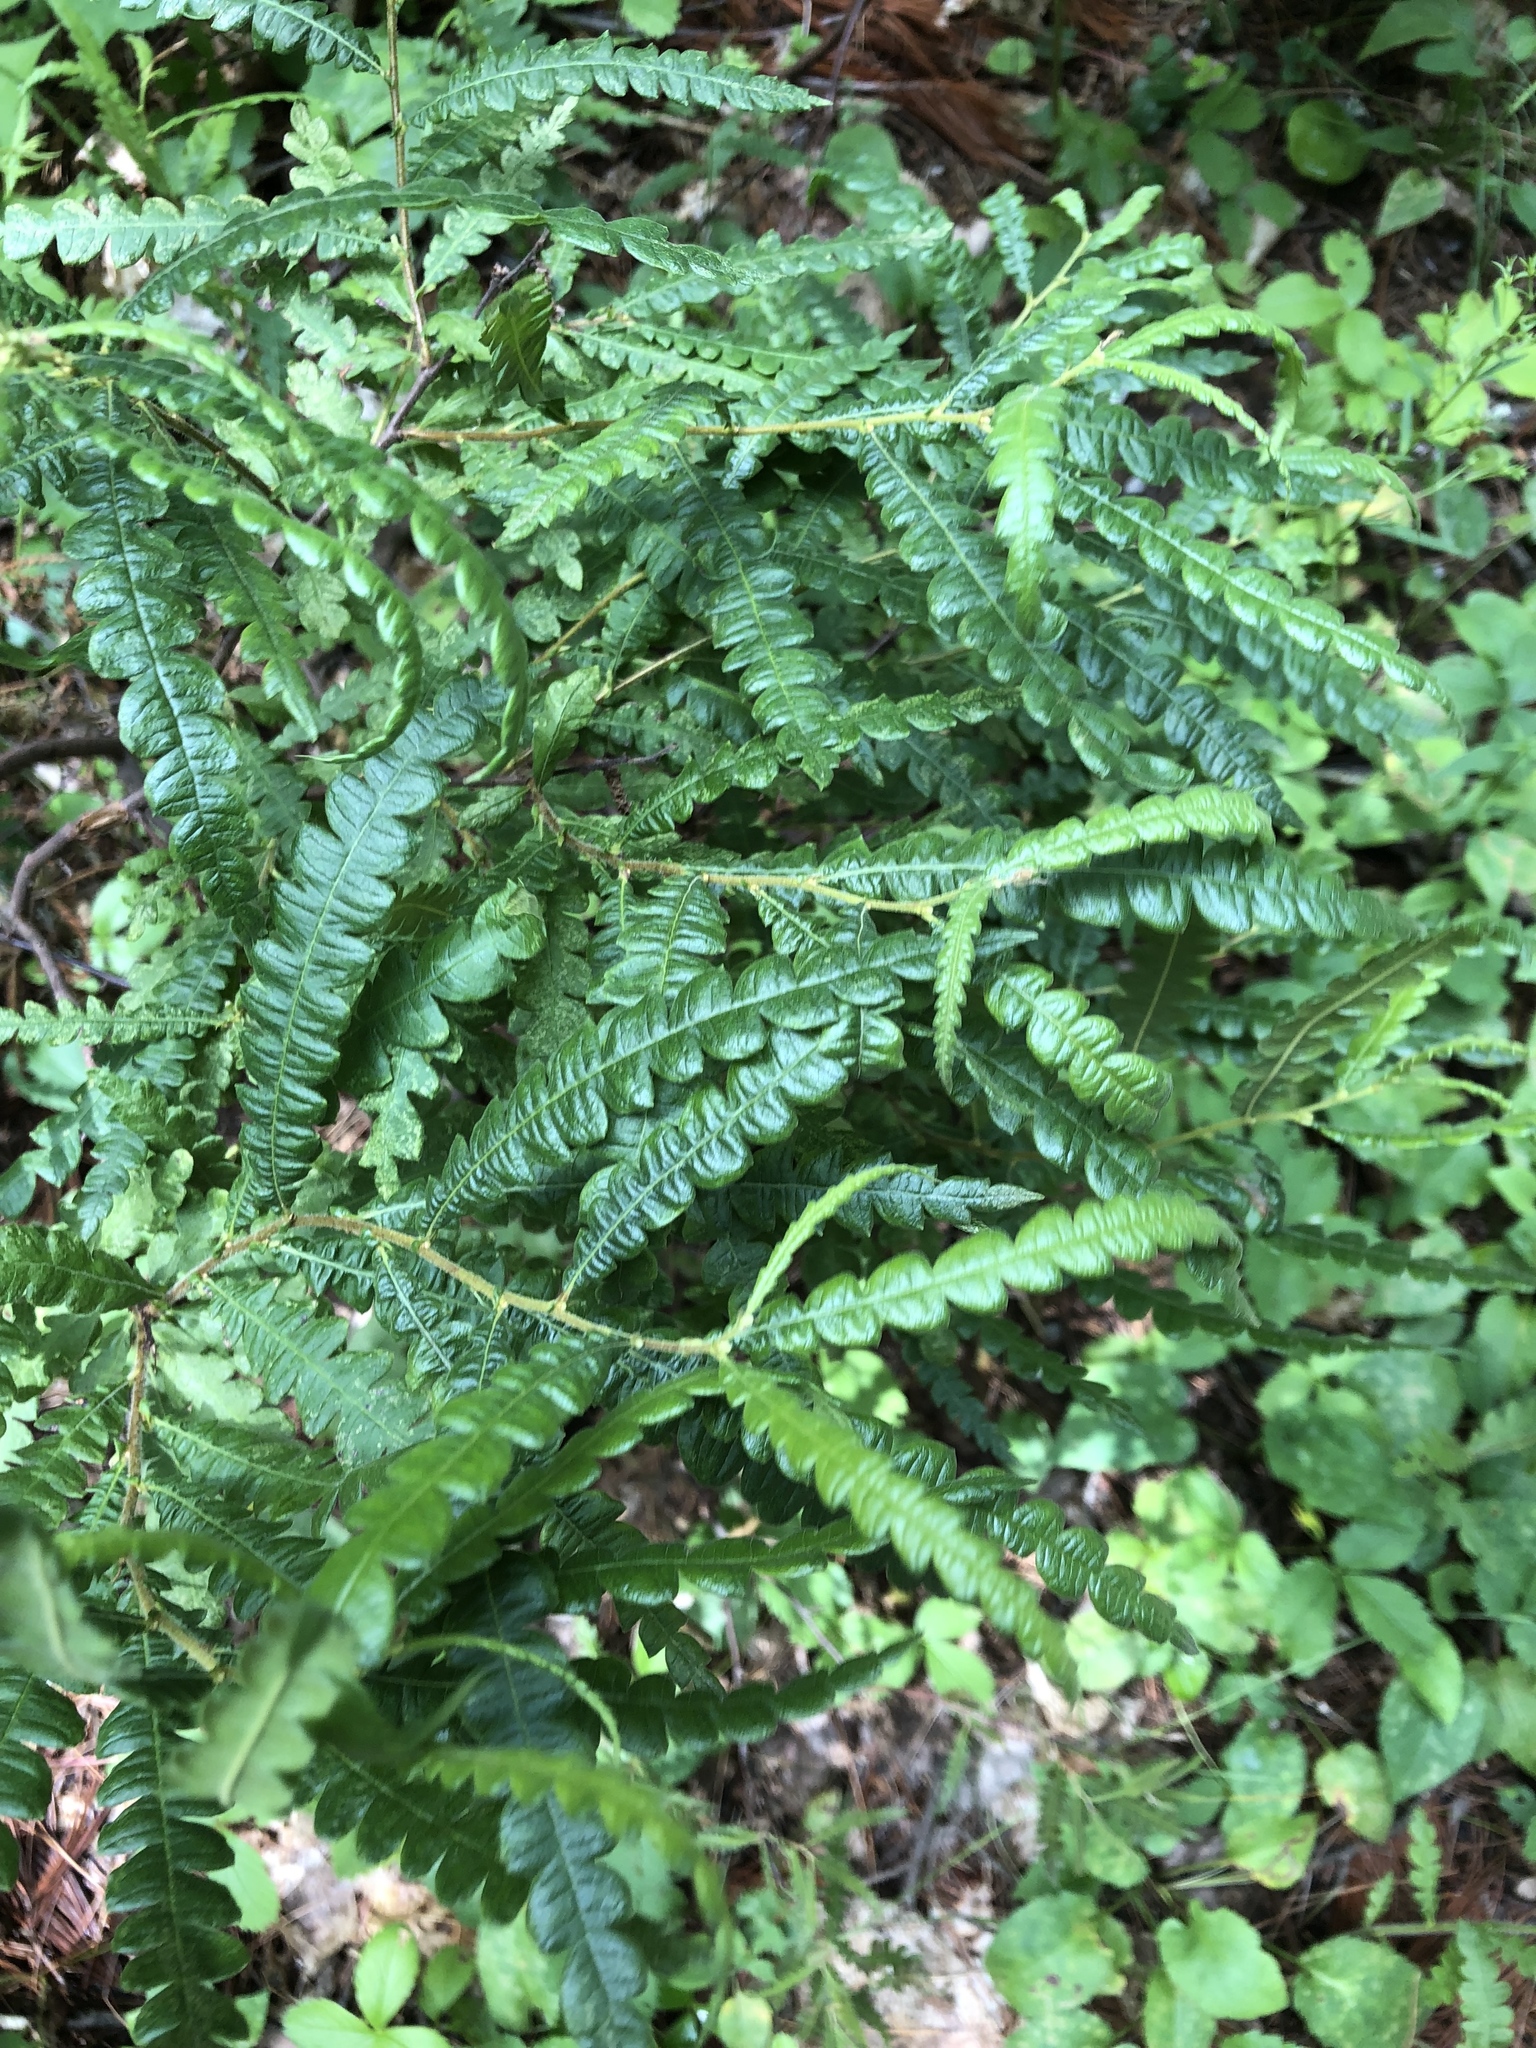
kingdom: Plantae
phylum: Tracheophyta
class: Magnoliopsida
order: Fagales
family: Myricaceae
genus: Comptonia
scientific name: Comptonia peregrina
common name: Sweet-fern
